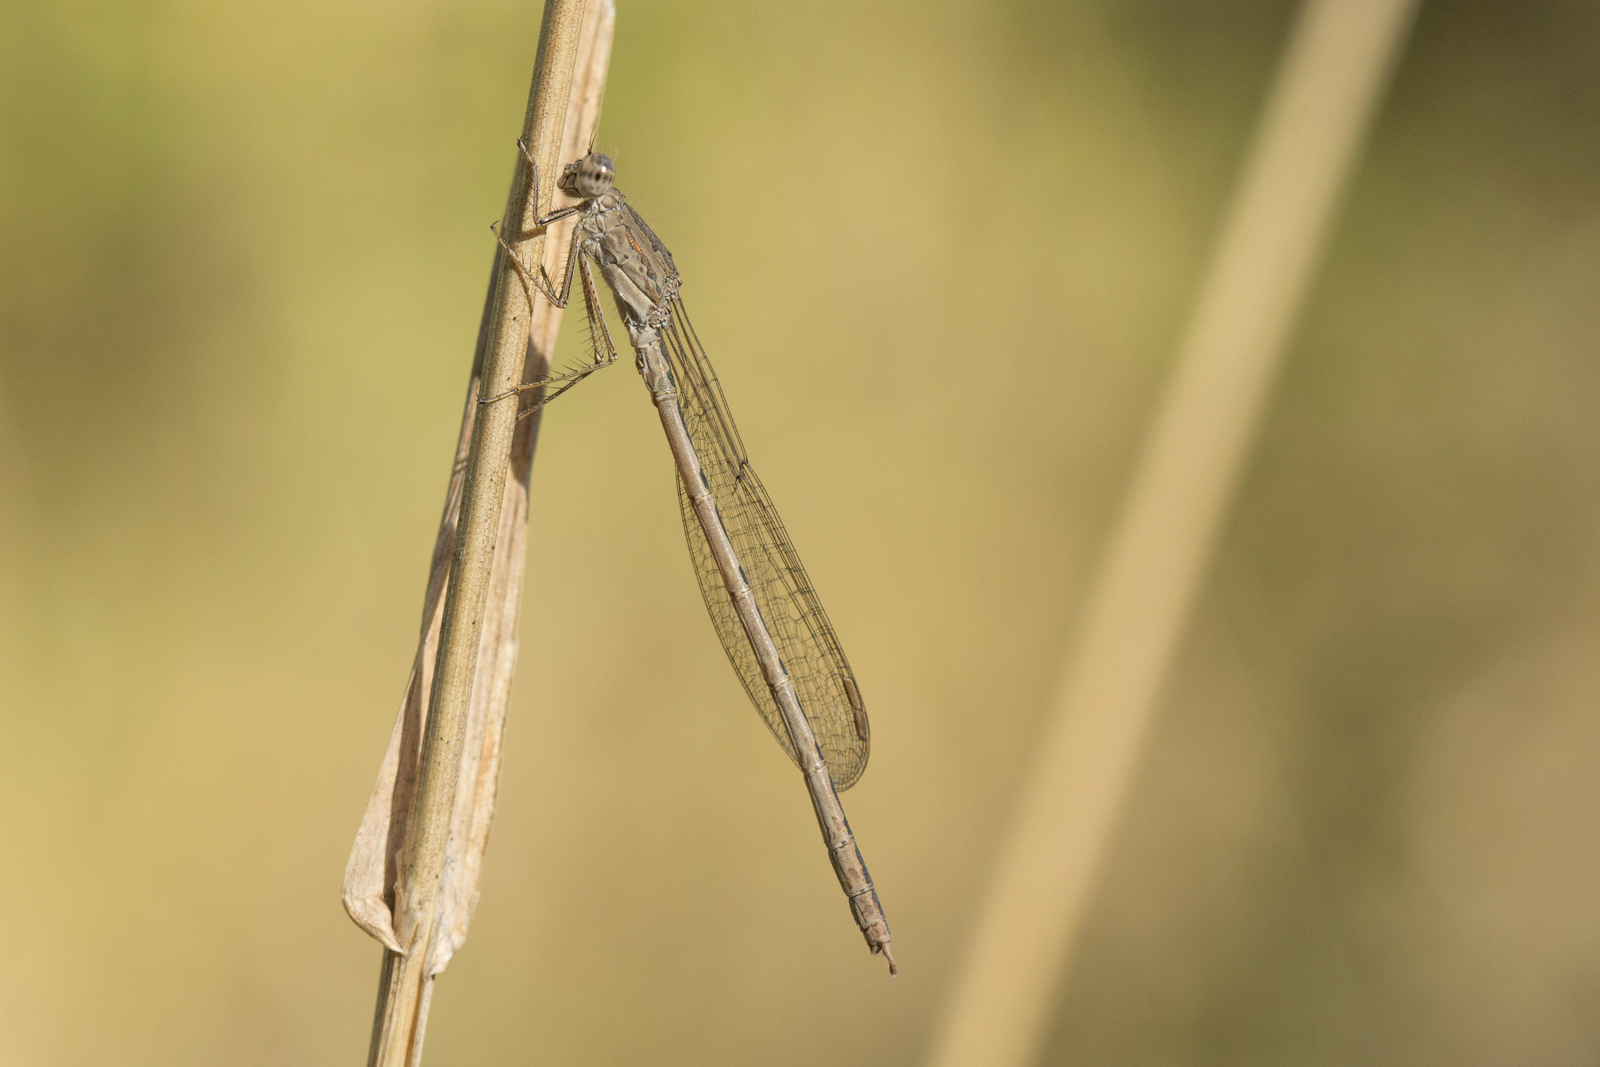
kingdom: Animalia
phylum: Arthropoda
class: Insecta
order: Odonata
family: Lestidae
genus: Sympecma
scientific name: Sympecma paedisca
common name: Siberian winter damsel
